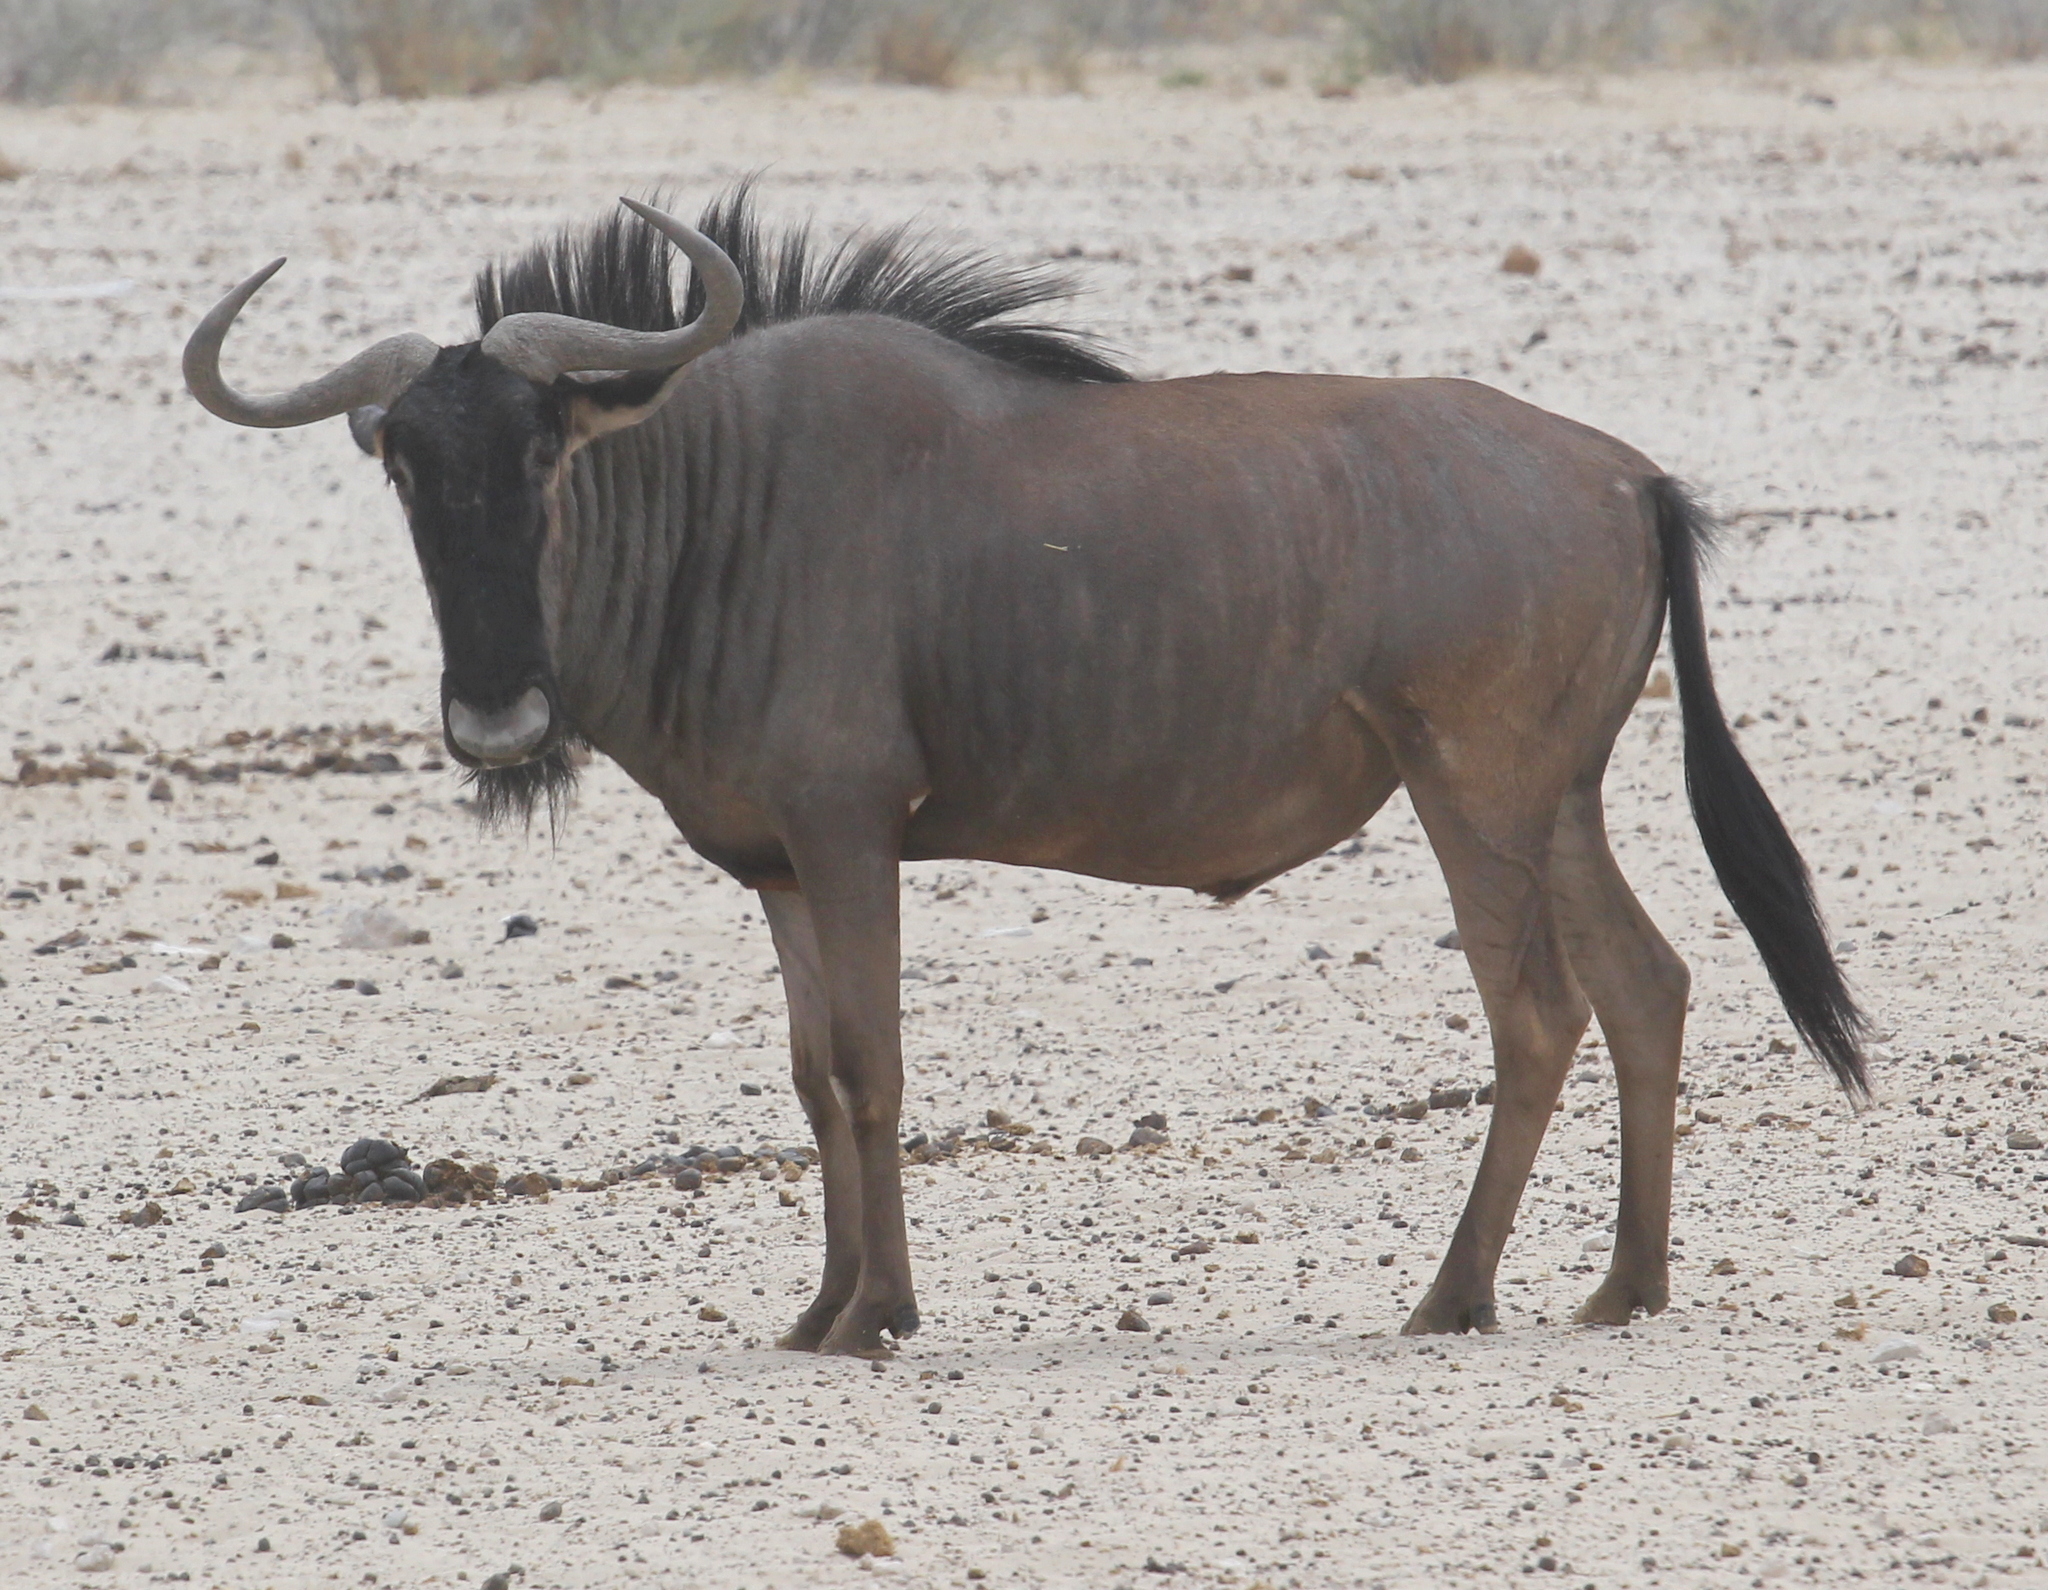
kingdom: Animalia
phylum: Chordata
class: Mammalia
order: Artiodactyla
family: Bovidae
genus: Connochaetes
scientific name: Connochaetes taurinus
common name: Blue wildebeest
